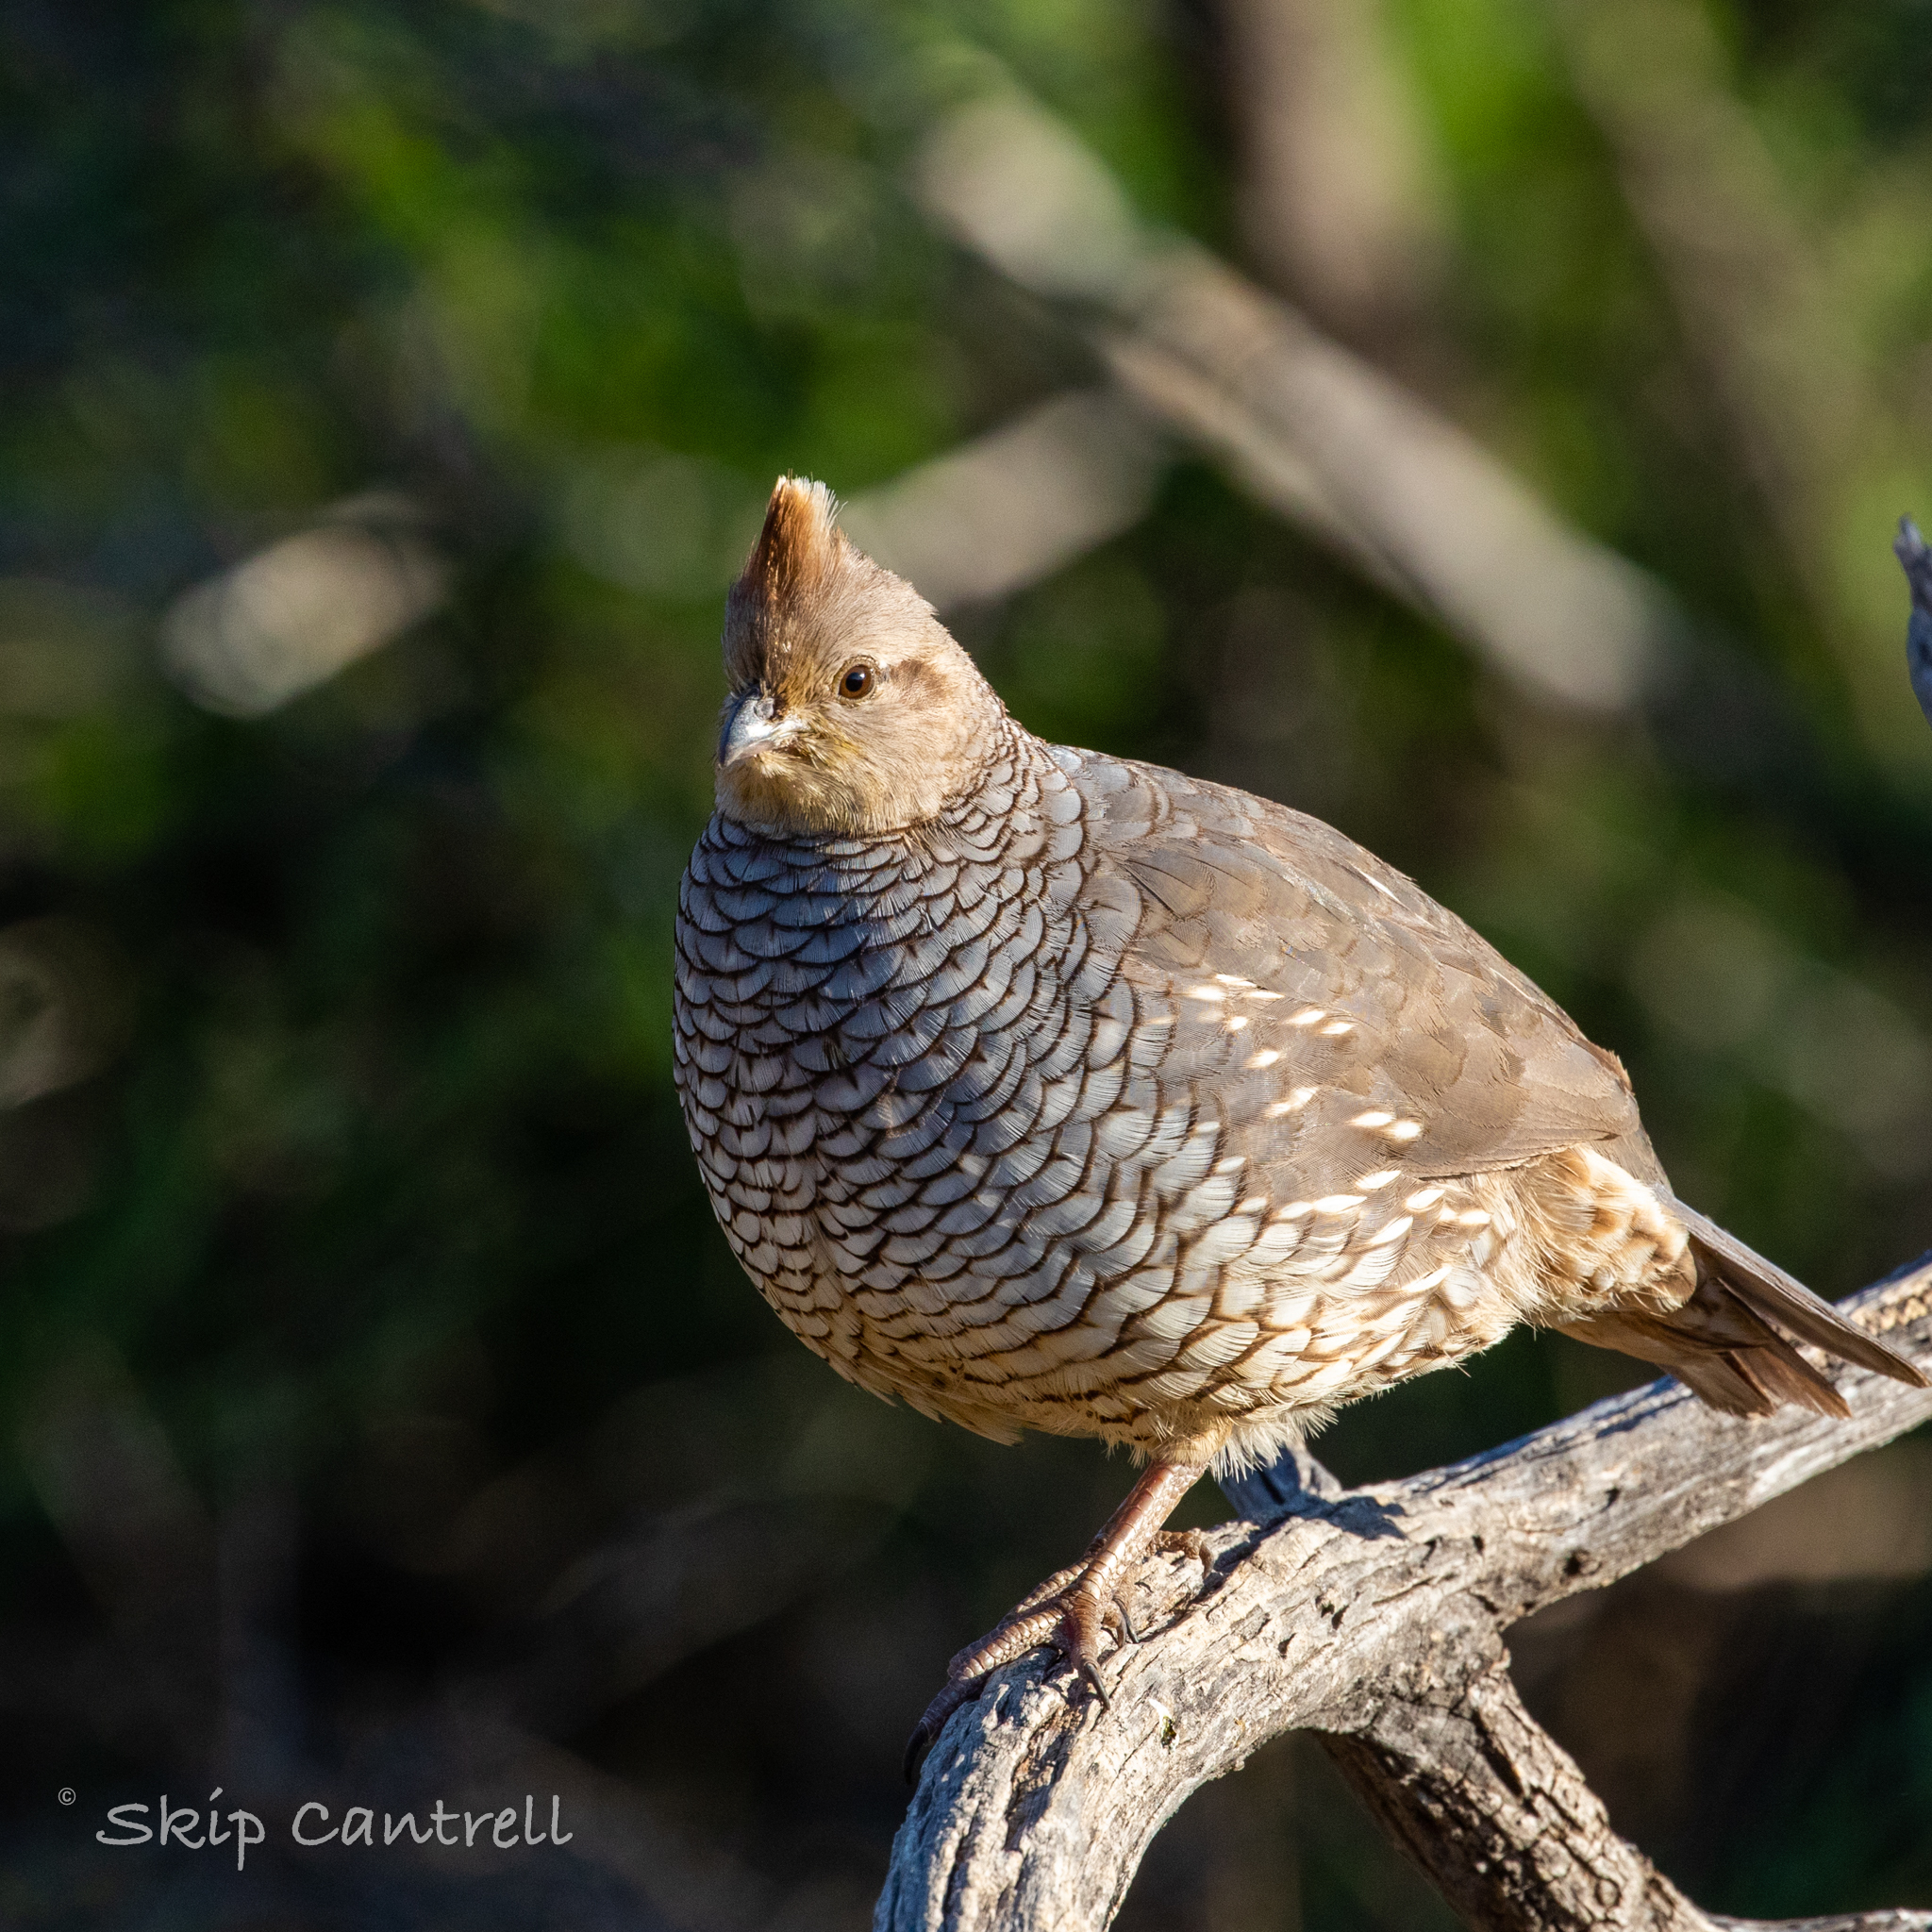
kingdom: Animalia
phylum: Chordata
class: Aves
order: Galliformes
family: Odontophoridae
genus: Callipepla
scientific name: Callipepla squamata
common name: Scaled quail
